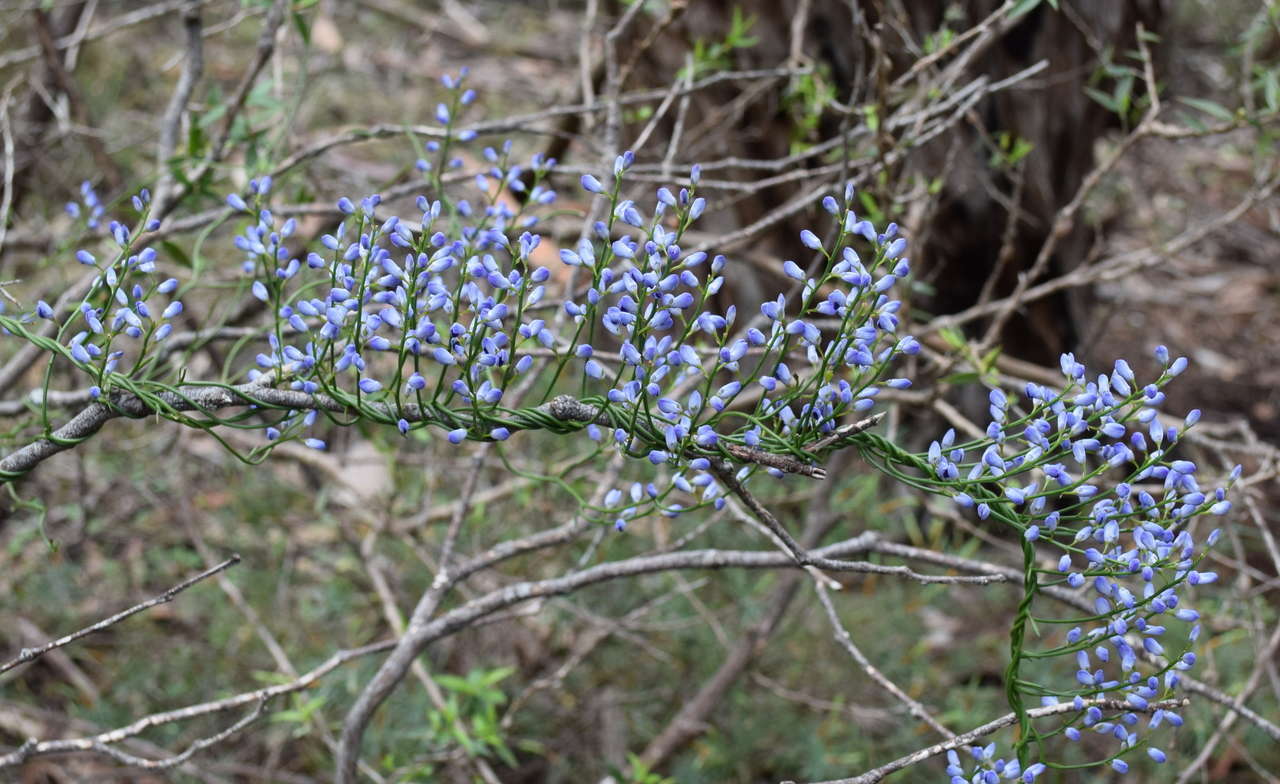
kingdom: Plantae
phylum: Tracheophyta
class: Magnoliopsida
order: Fabales
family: Polygalaceae
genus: Comesperma
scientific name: Comesperma volubile
